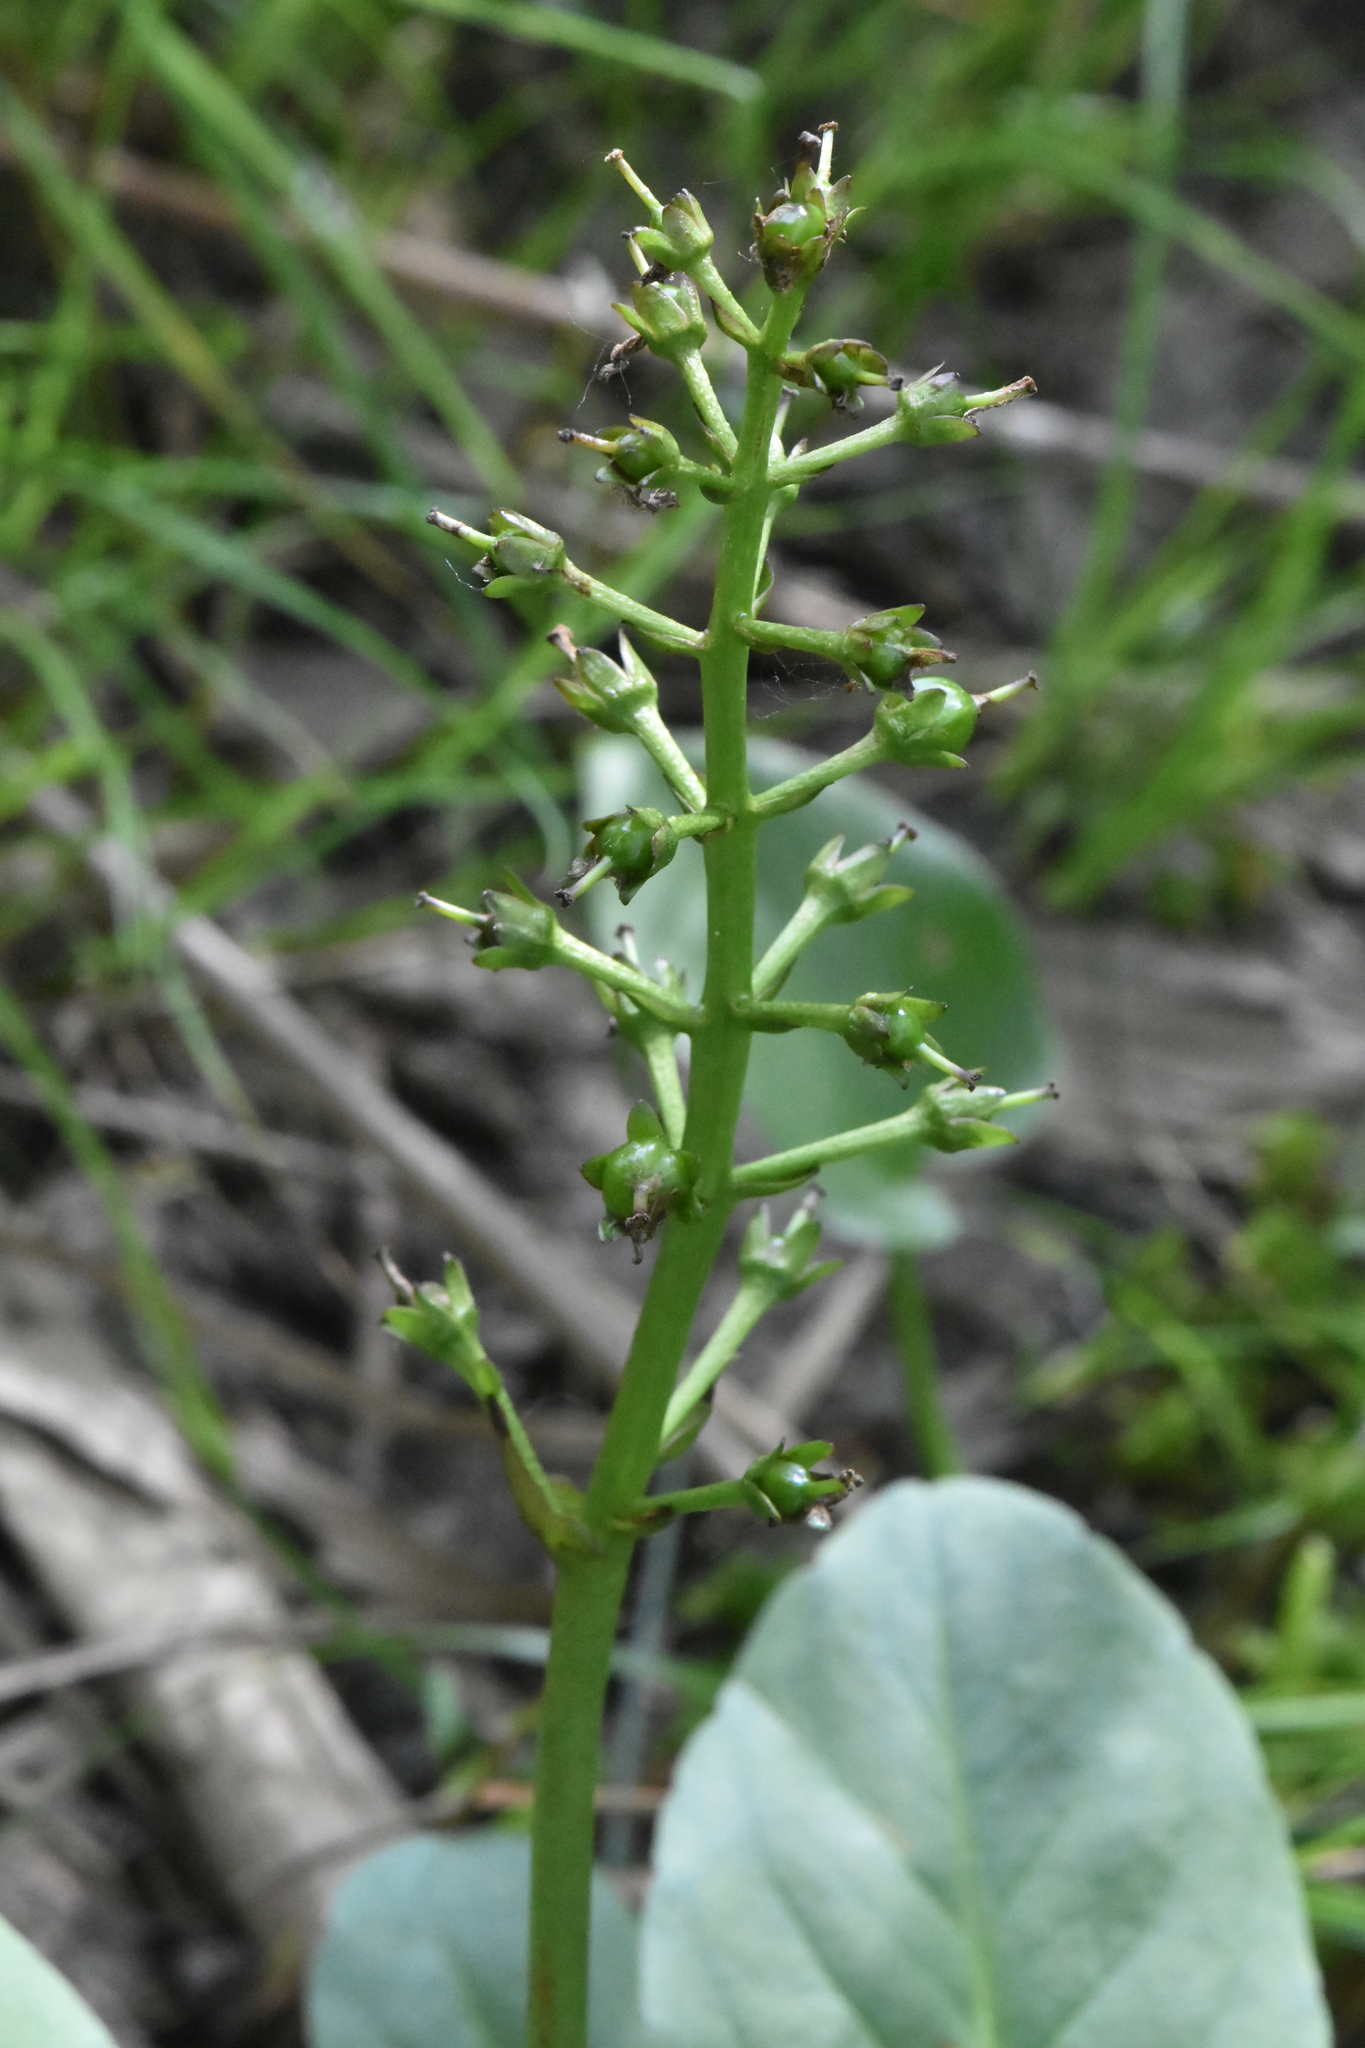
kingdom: Plantae
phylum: Tracheophyta
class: Magnoliopsida
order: Asterales
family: Menyanthaceae
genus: Menyanthes
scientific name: Menyanthes trifoliata
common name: Bogbean
